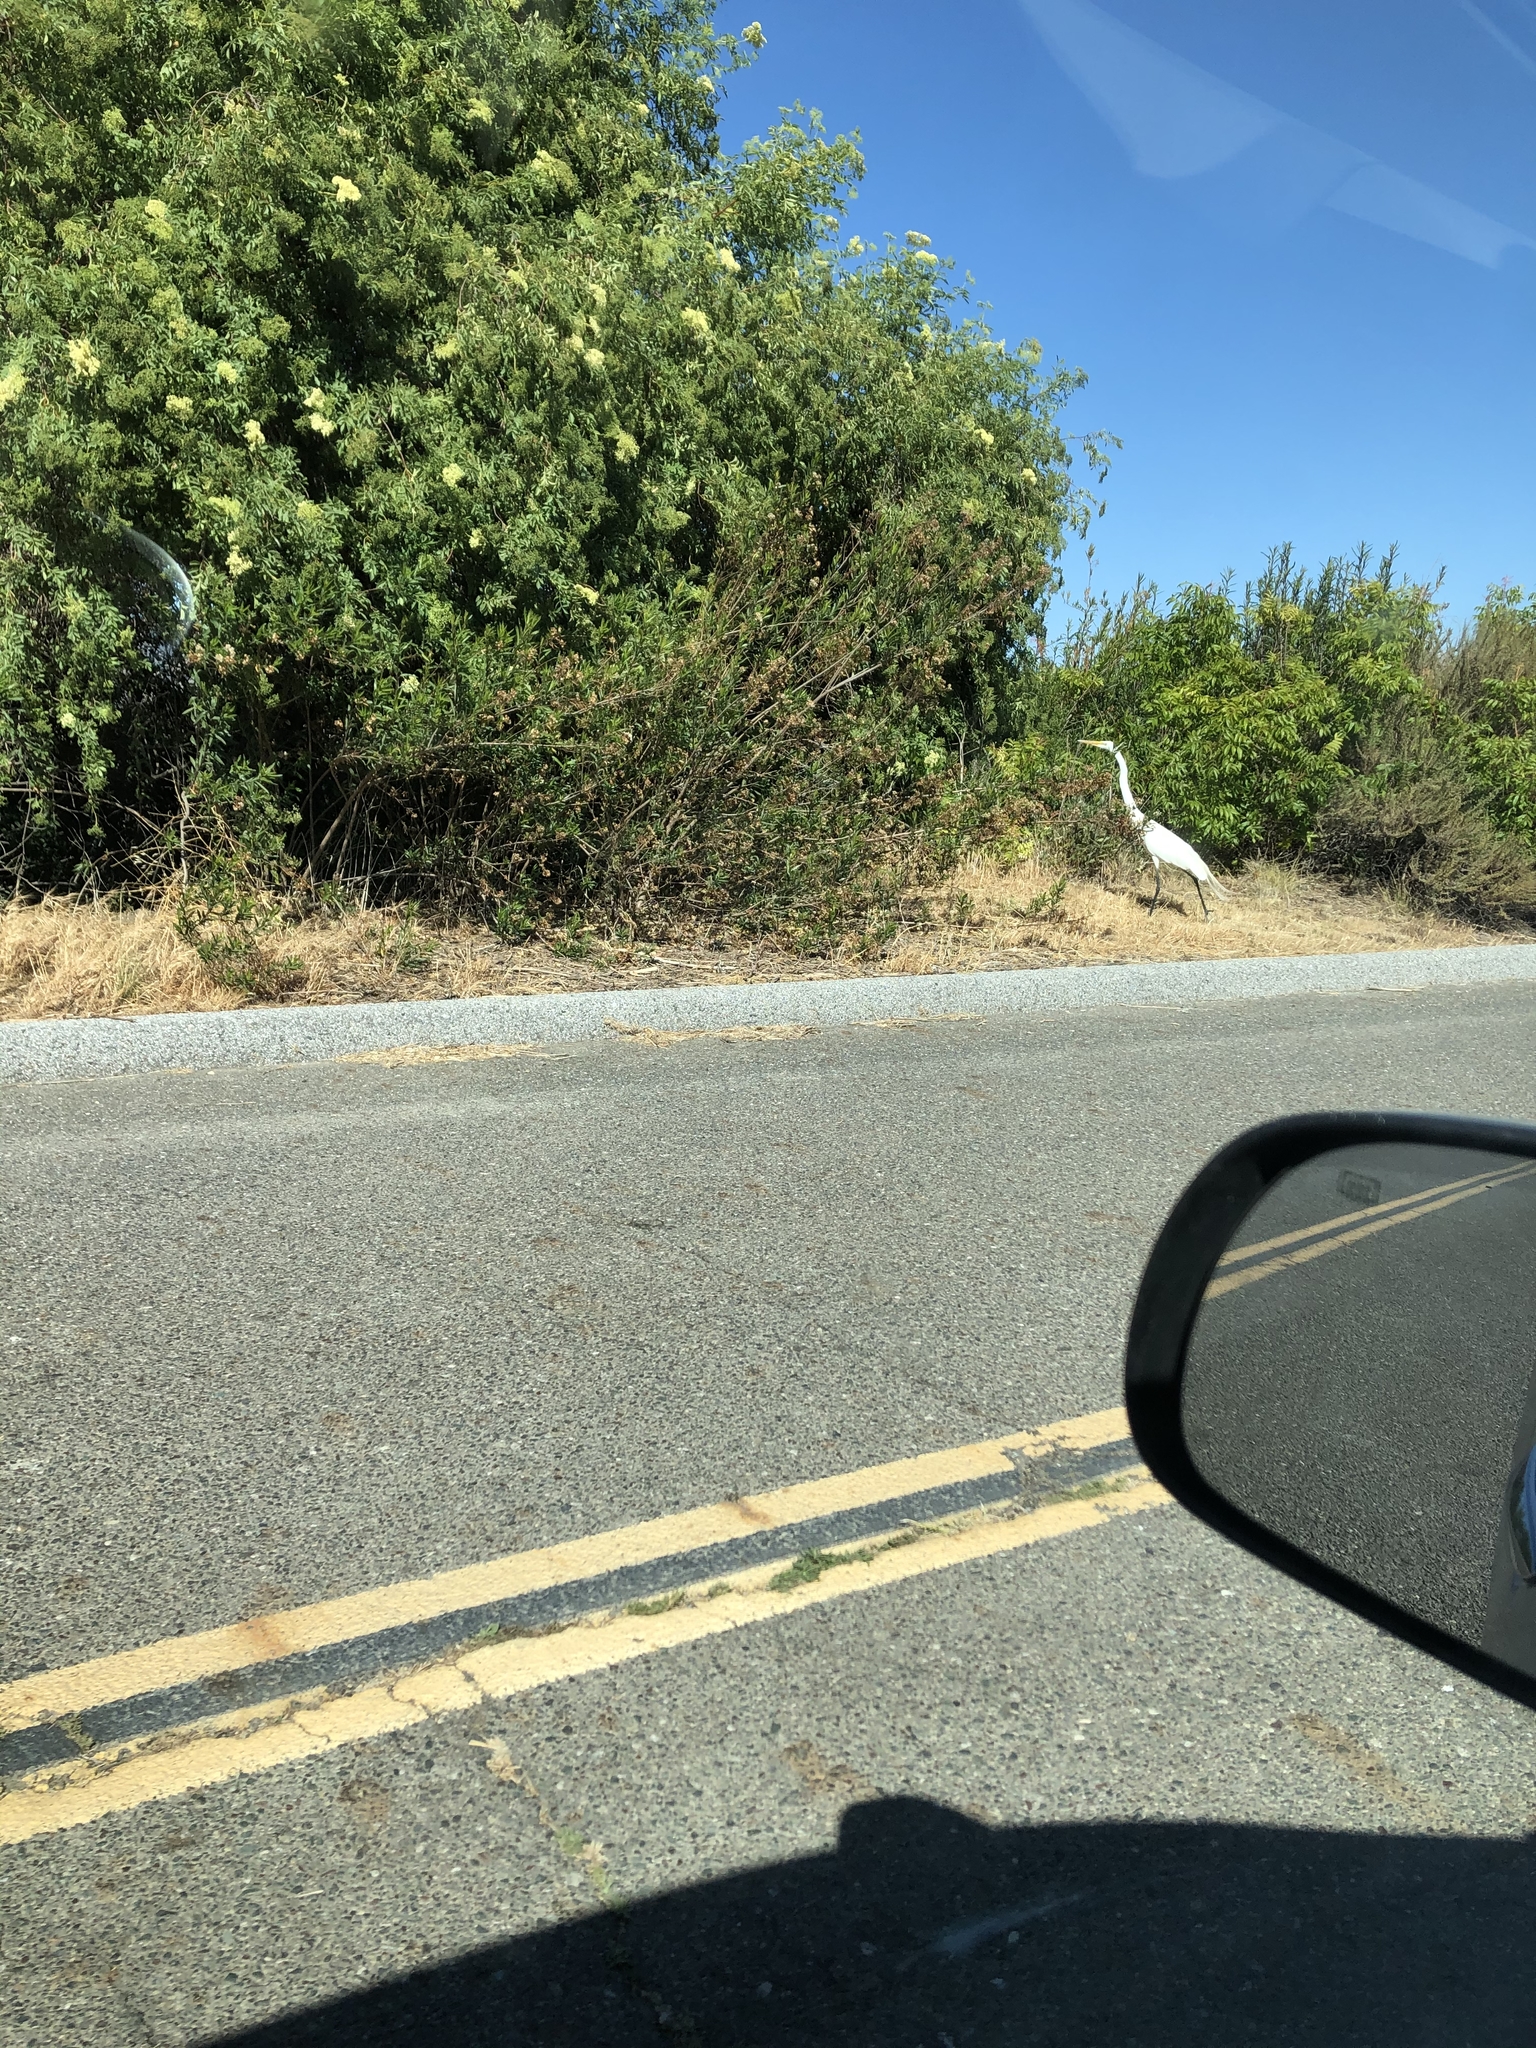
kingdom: Animalia
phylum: Chordata
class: Aves
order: Pelecaniformes
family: Ardeidae
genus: Ardea
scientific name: Ardea alba
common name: Great egret
